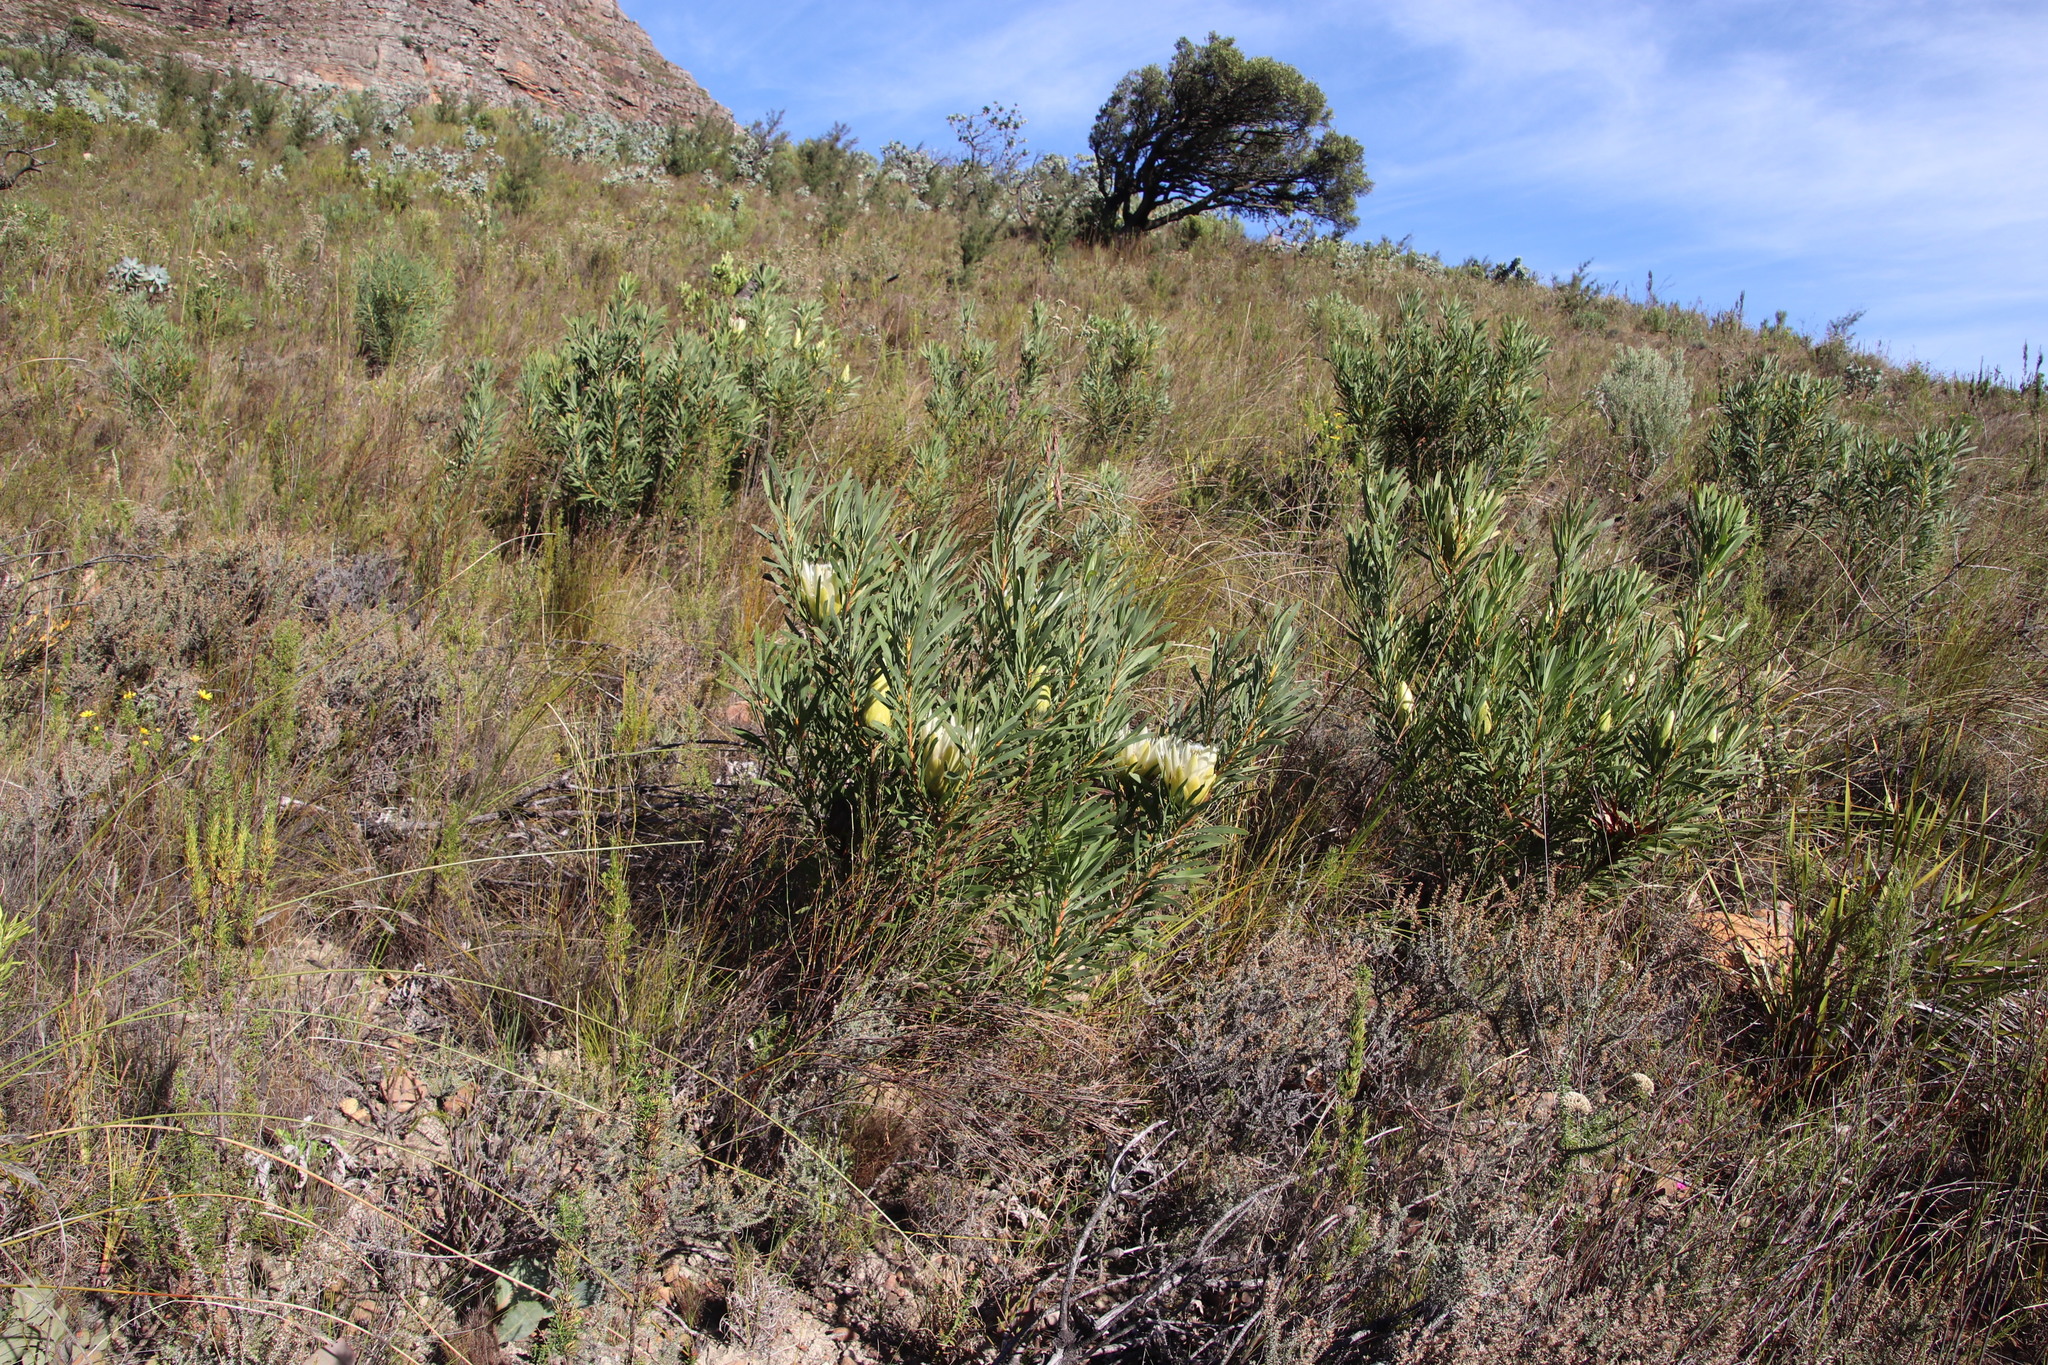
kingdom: Plantae
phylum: Tracheophyta
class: Magnoliopsida
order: Proteales
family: Proteaceae
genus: Protea
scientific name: Protea repens
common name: Sugarbush
